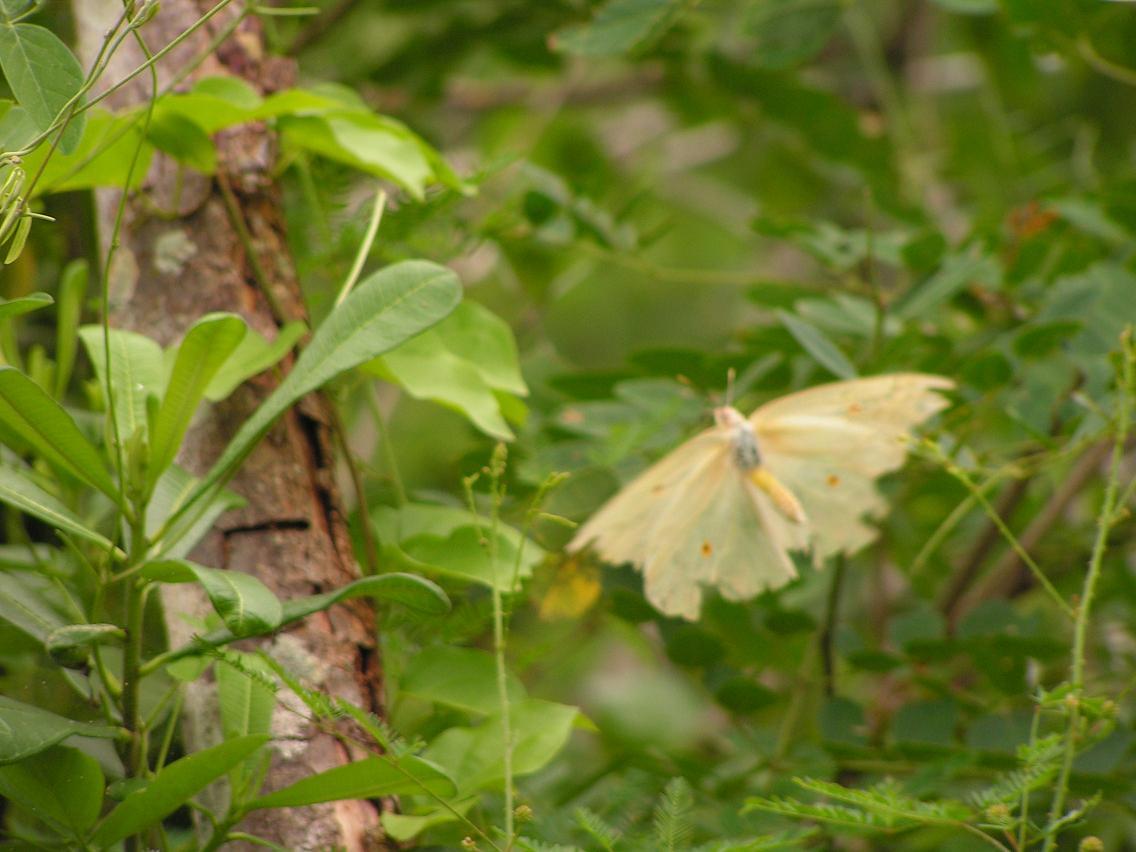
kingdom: Animalia
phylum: Arthropoda
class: Insecta
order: Lepidoptera
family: Pieridae
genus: Anteos
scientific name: Anteos maerula
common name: Angled sulphur
